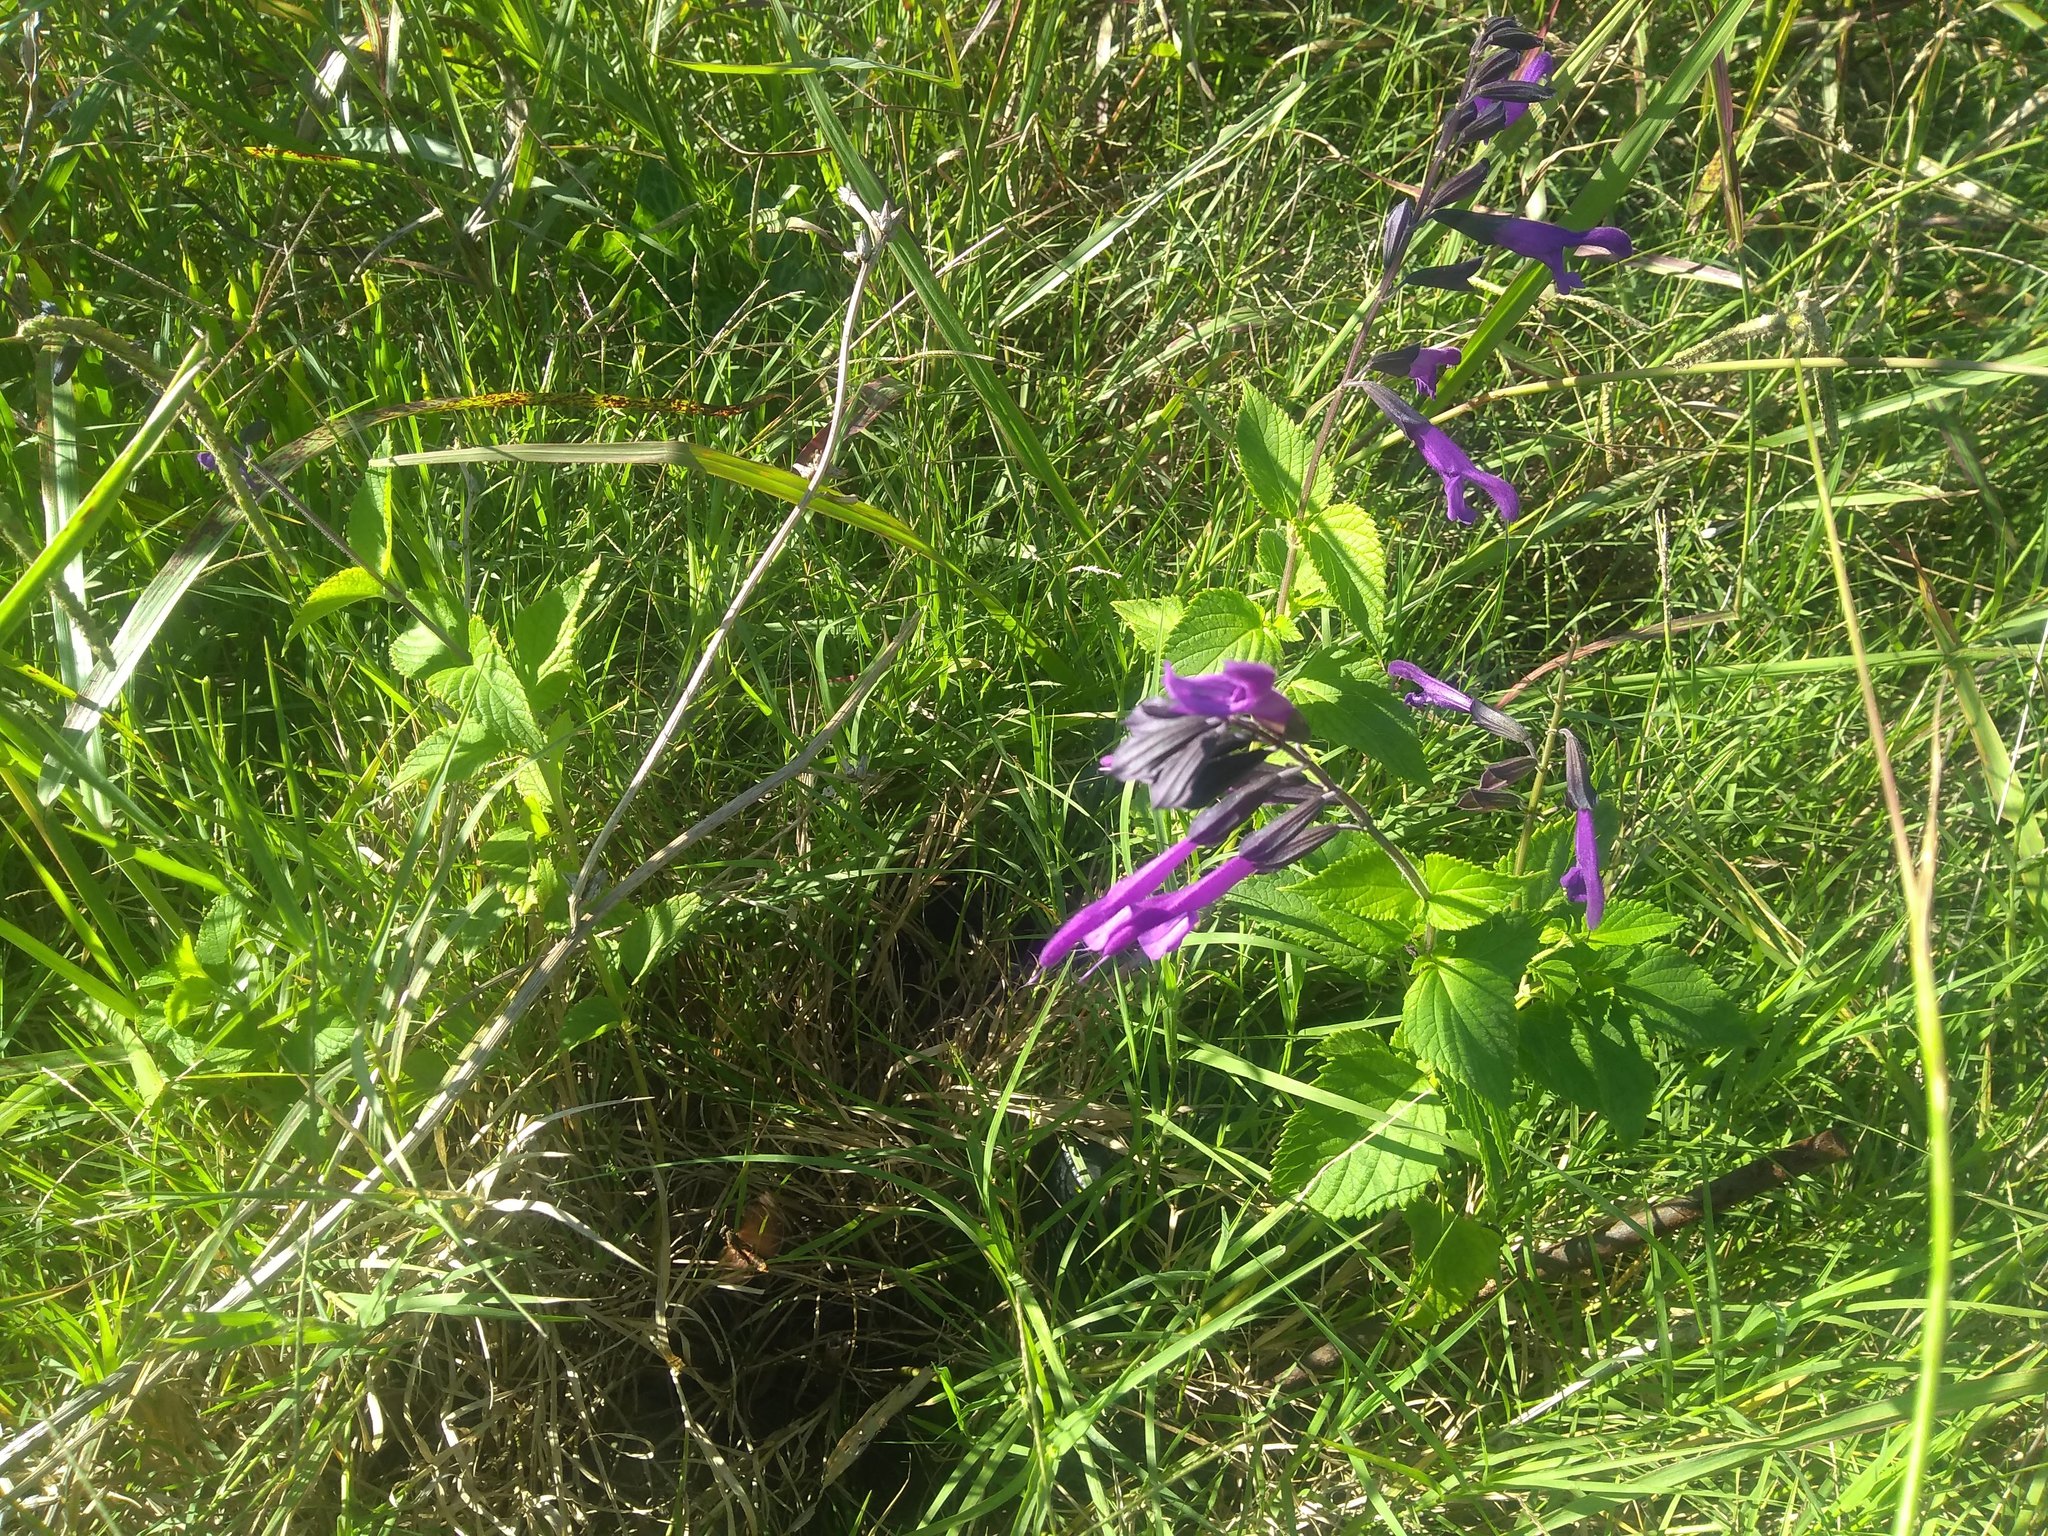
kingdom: Plantae
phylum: Tracheophyta
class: Magnoliopsida
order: Lamiales
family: Lamiaceae
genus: Salvia
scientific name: Salvia guaranitica
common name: Anise-scented sage
